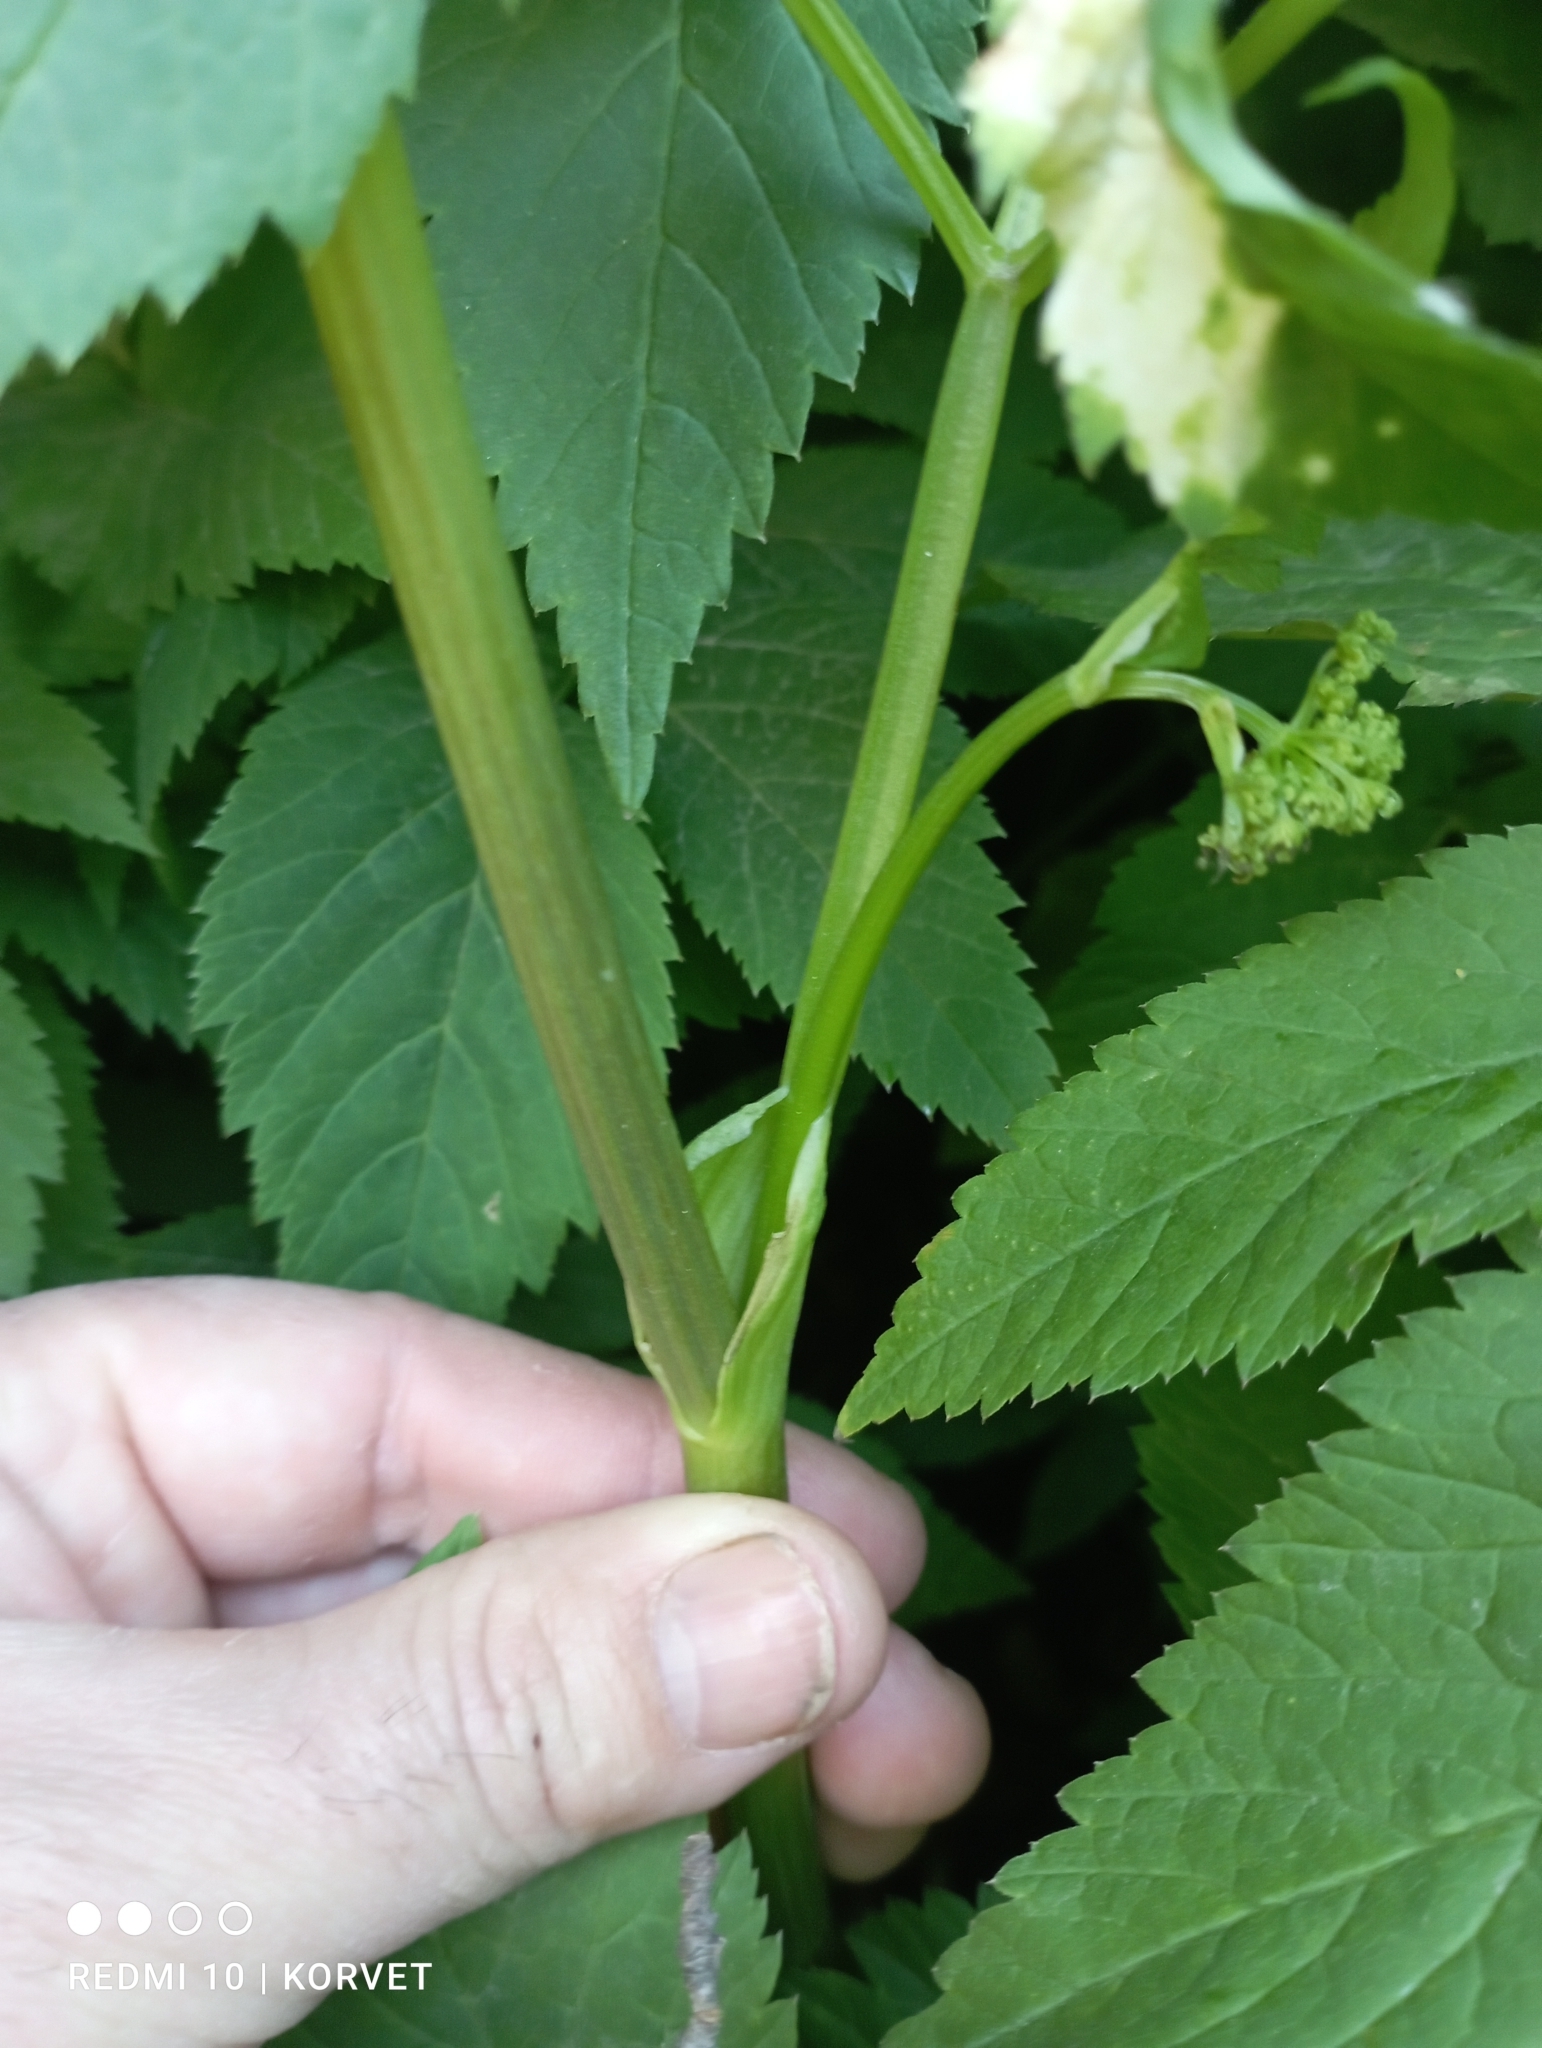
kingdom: Plantae
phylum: Tracheophyta
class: Magnoliopsida
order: Apiales
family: Apiaceae
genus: Aegopodium
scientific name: Aegopodium podagraria
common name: Ground-elder
